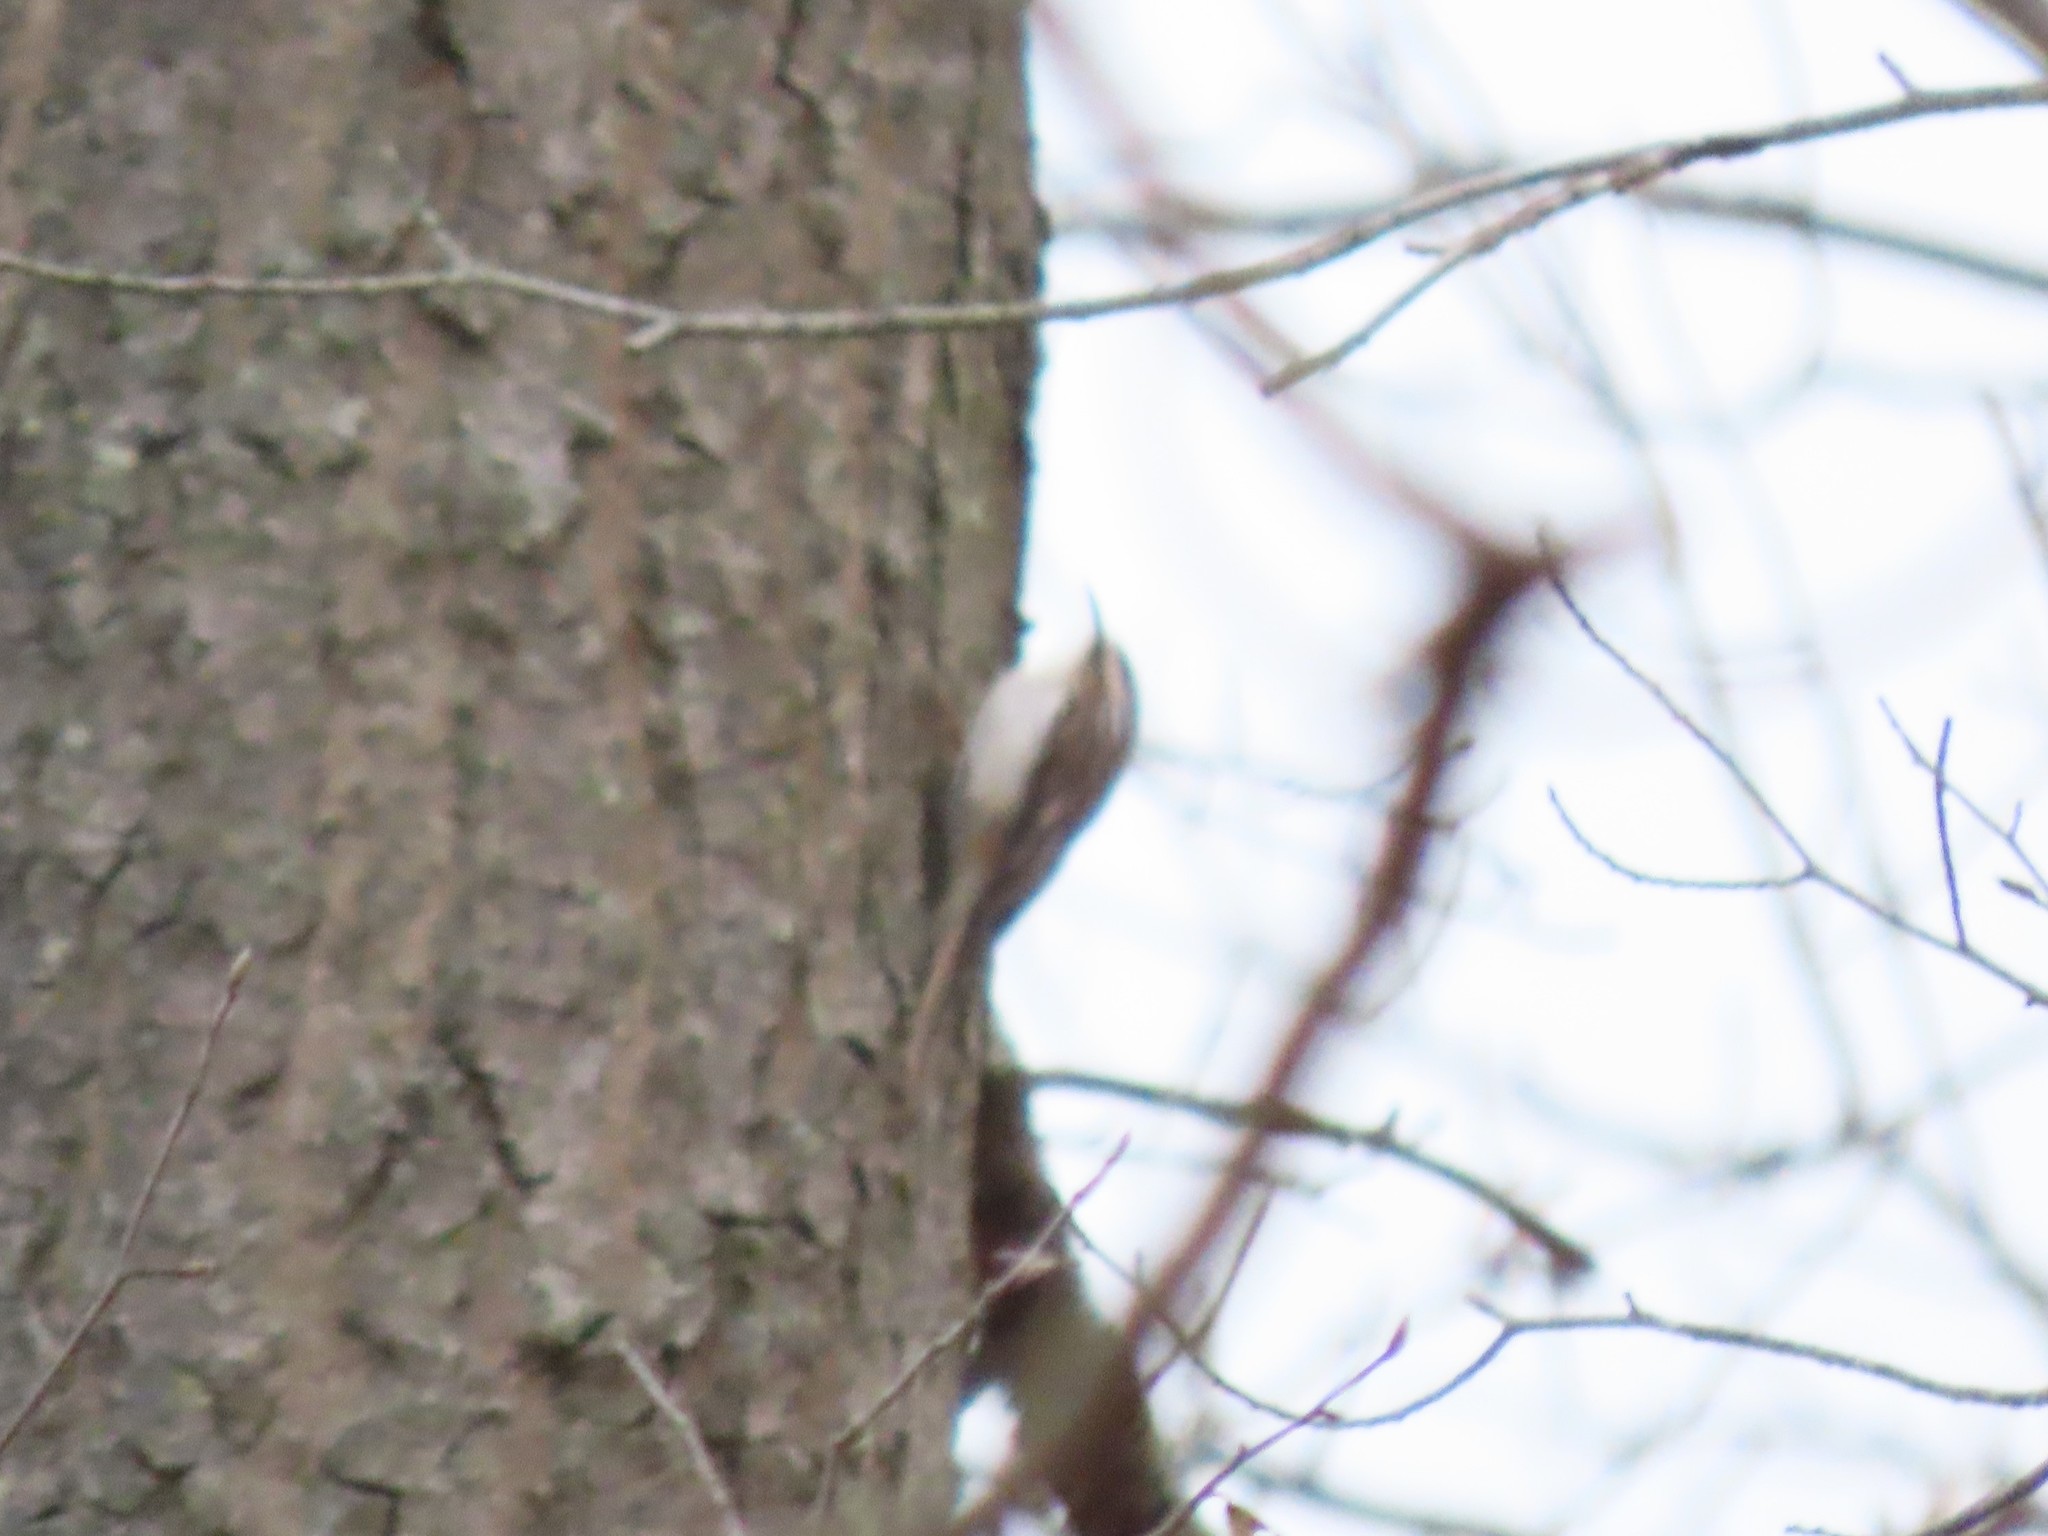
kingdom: Animalia
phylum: Chordata
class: Aves
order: Passeriformes
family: Certhiidae
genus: Certhia
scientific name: Certhia americana
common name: Brown creeper
